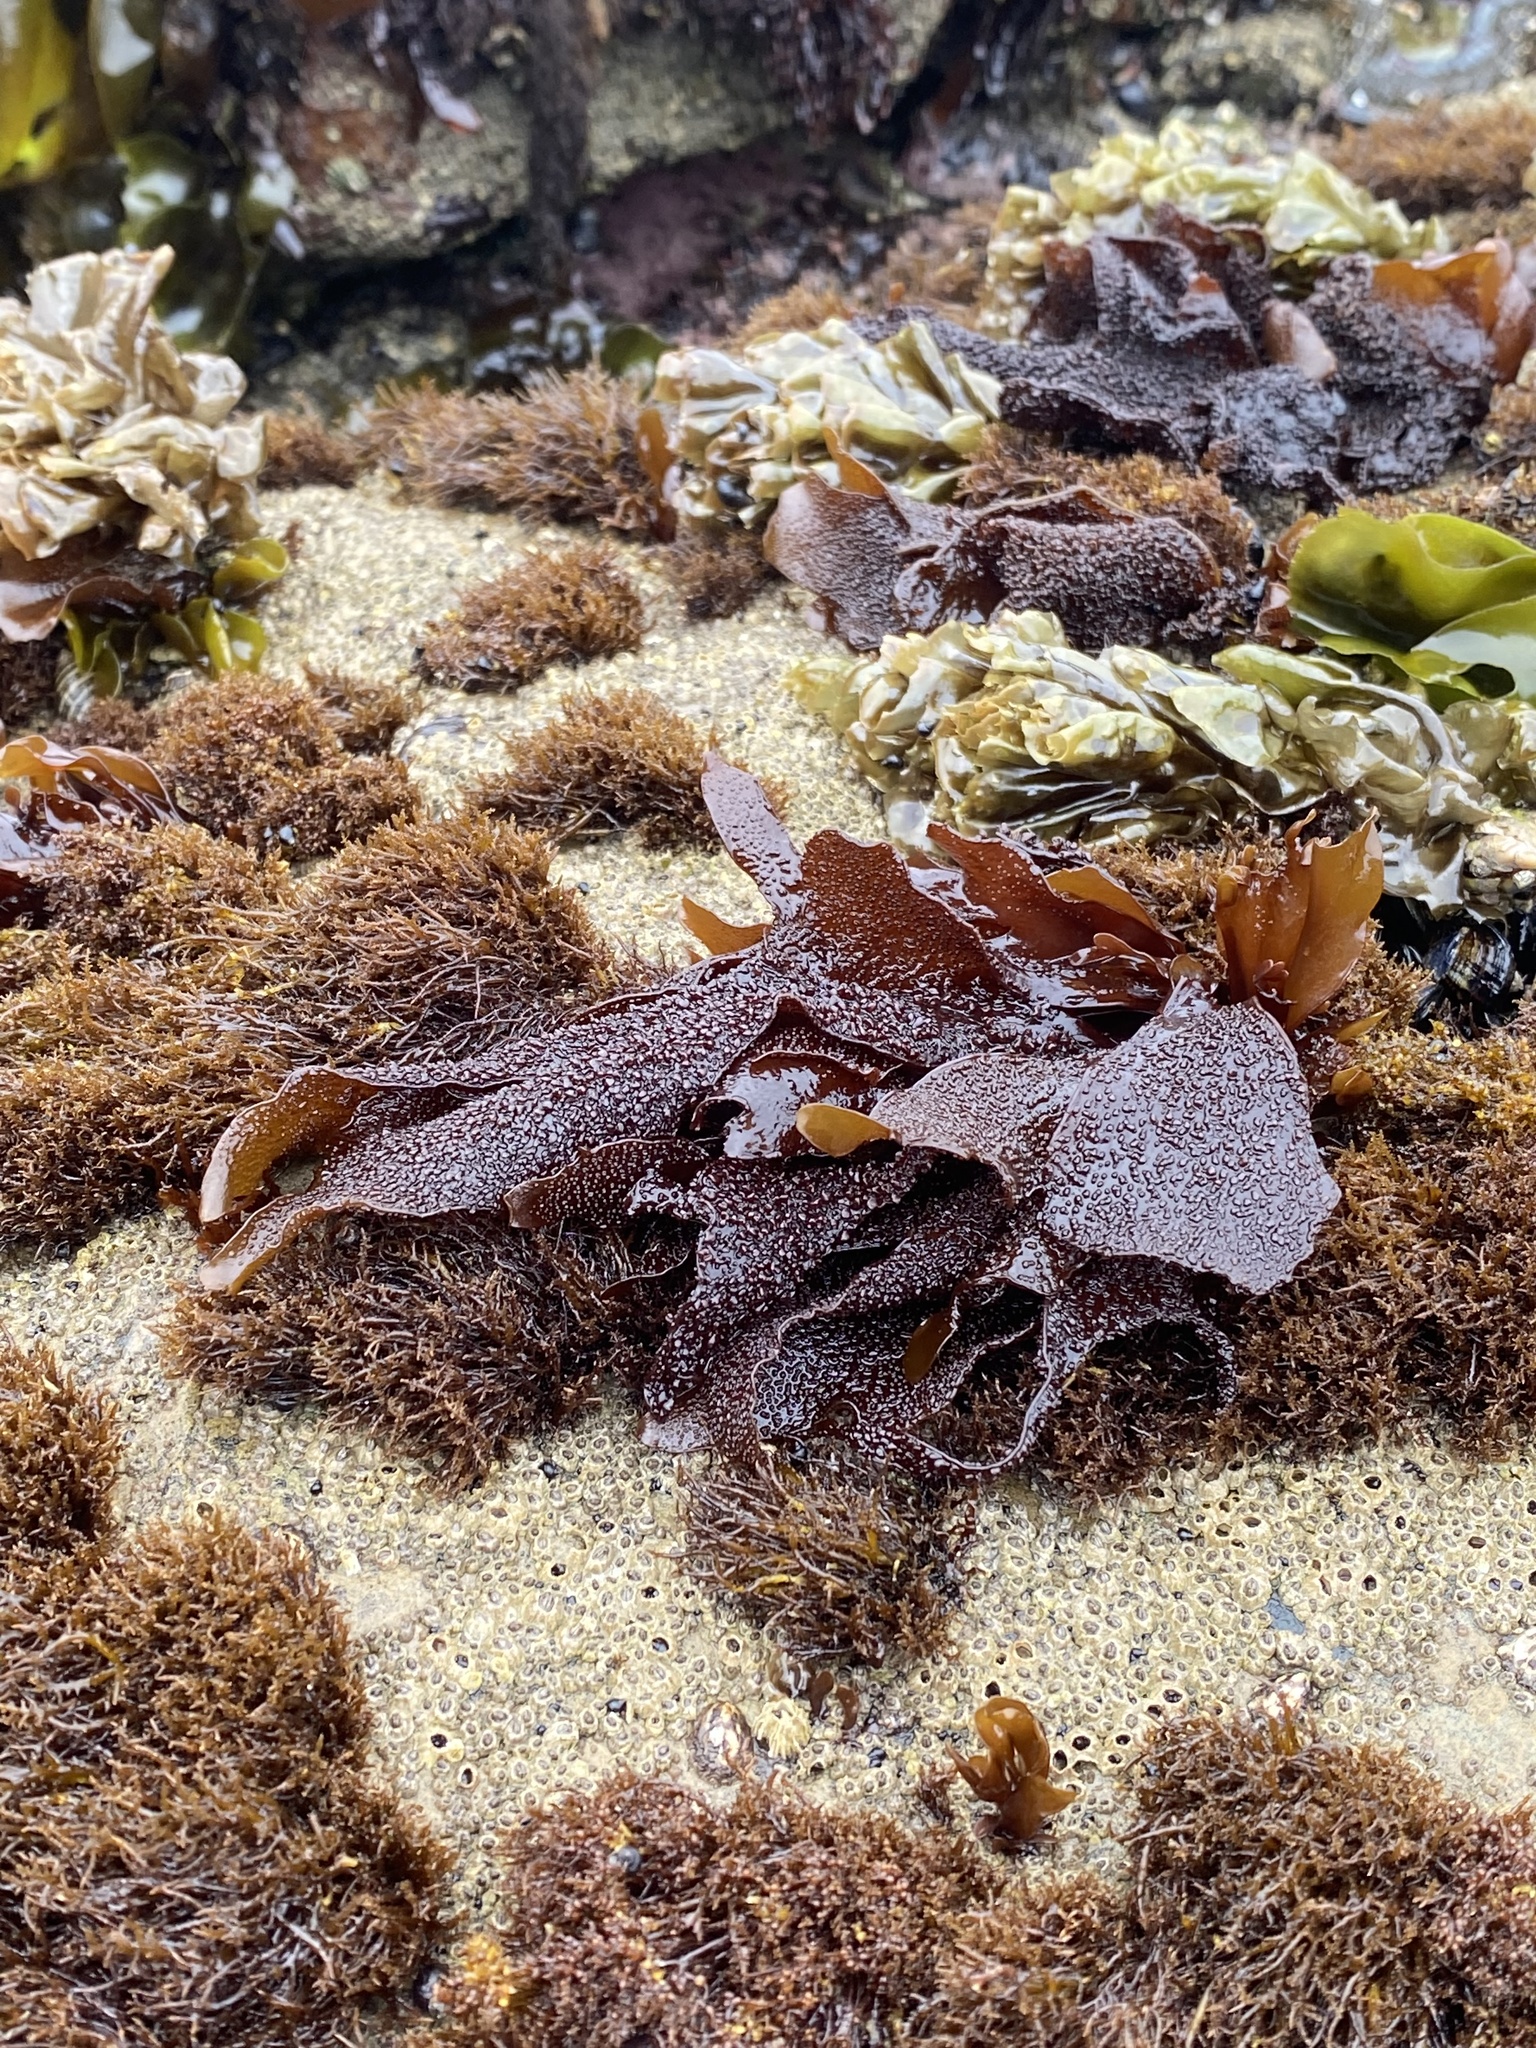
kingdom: Plantae
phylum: Rhodophyta
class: Florideophyceae
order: Gigartinales
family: Phyllophoraceae
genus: Mastocarpus
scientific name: Mastocarpus papillatus
